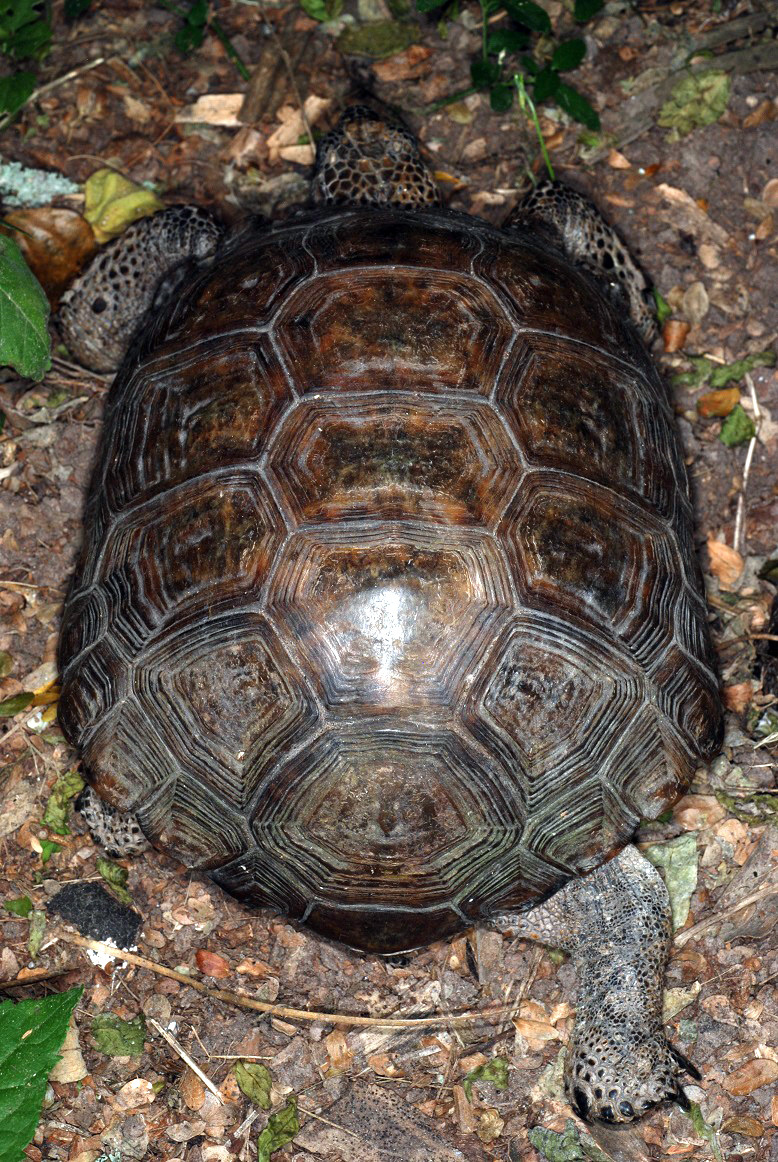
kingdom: Animalia
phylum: Chordata
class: Testudines
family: Testudinidae
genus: Gopherus
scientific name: Gopherus berlandieri
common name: Texas (gopher )tortoise
